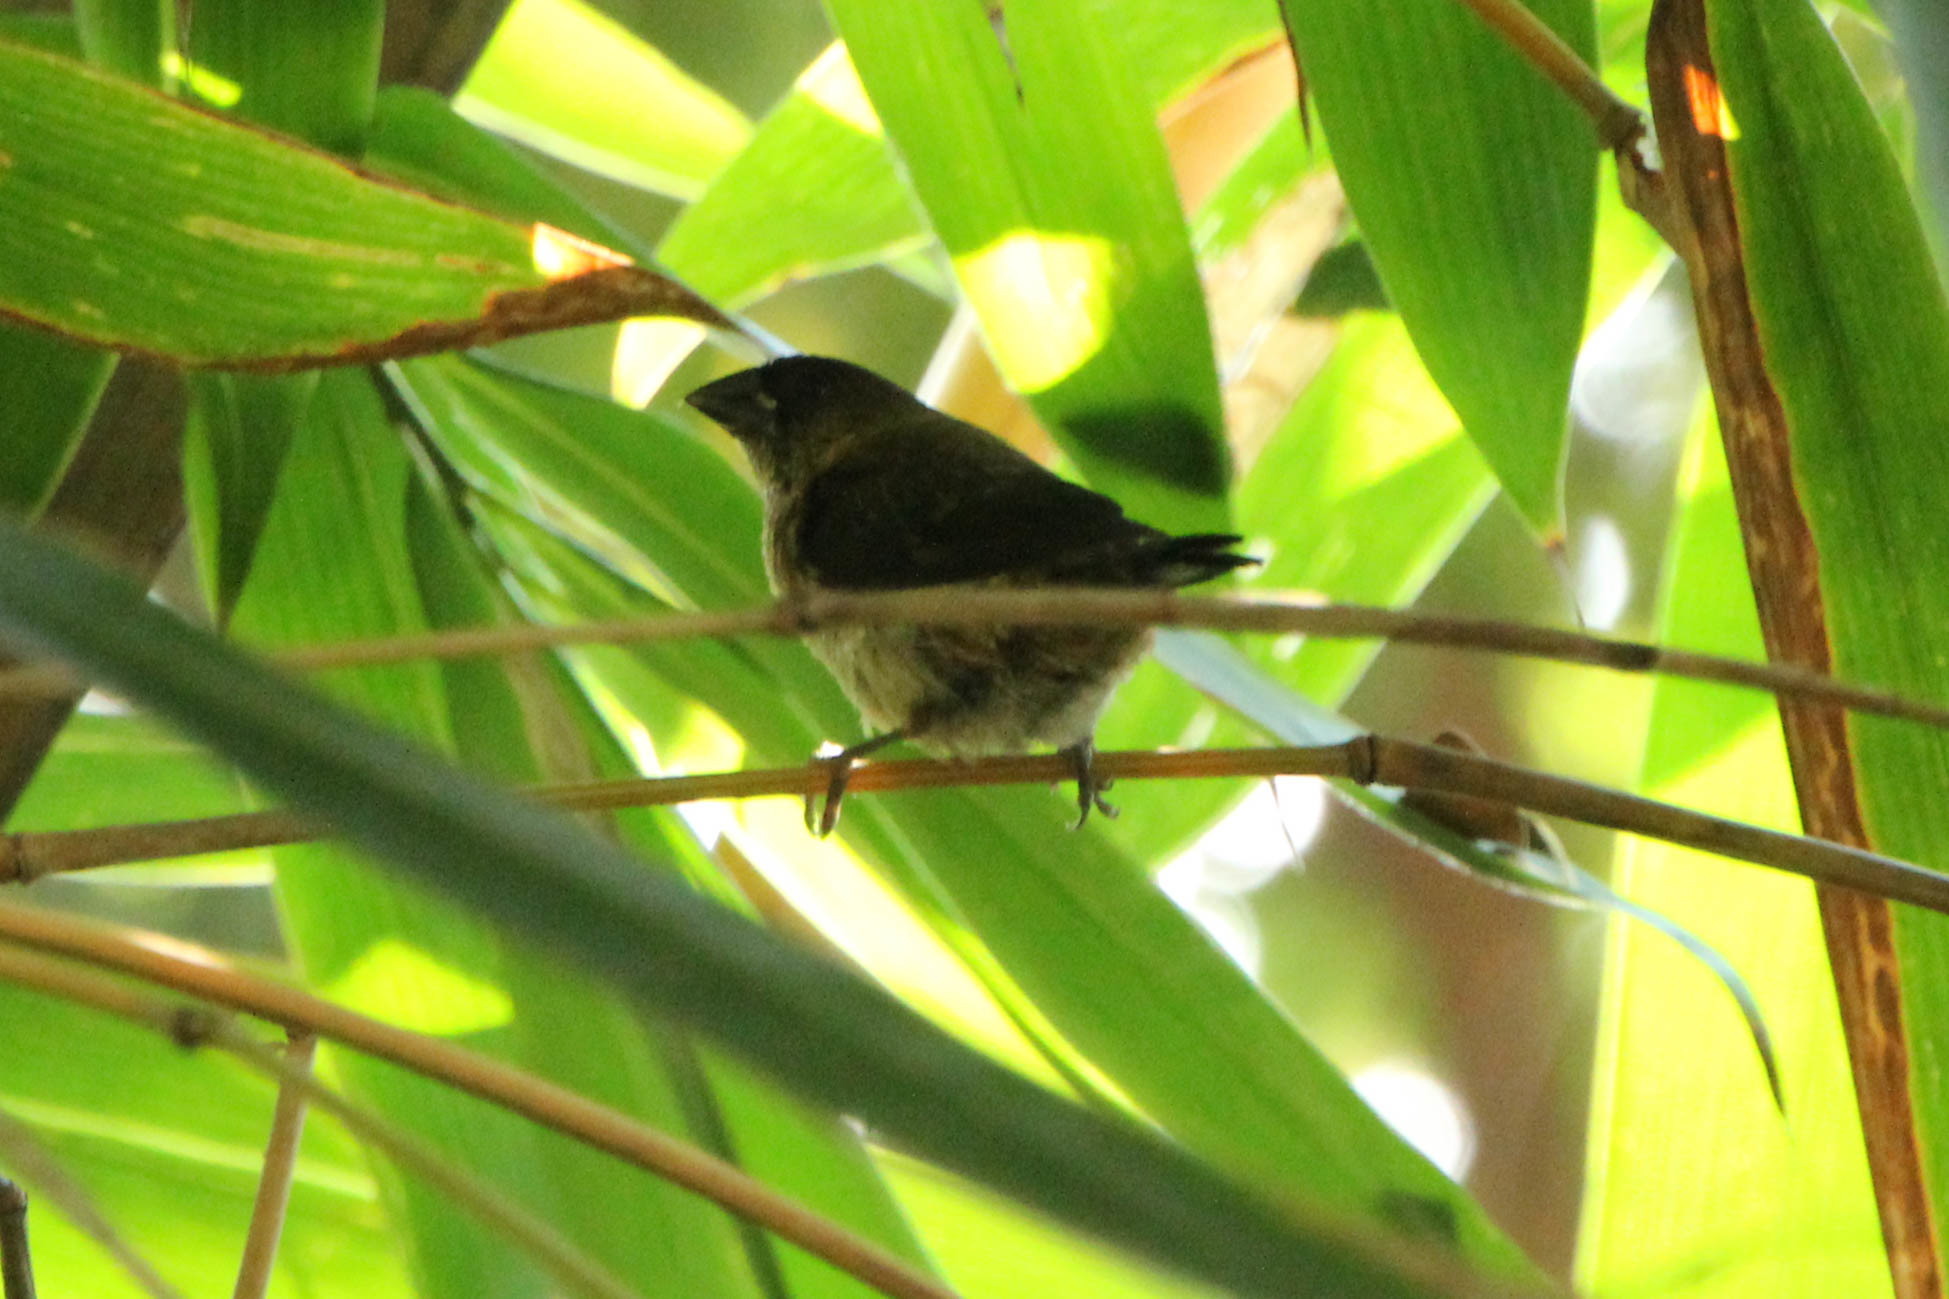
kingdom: Animalia
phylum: Chordata
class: Aves
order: Passeriformes
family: Estrildidae
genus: Lonchura
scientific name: Lonchura striata
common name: White-rumped munia
